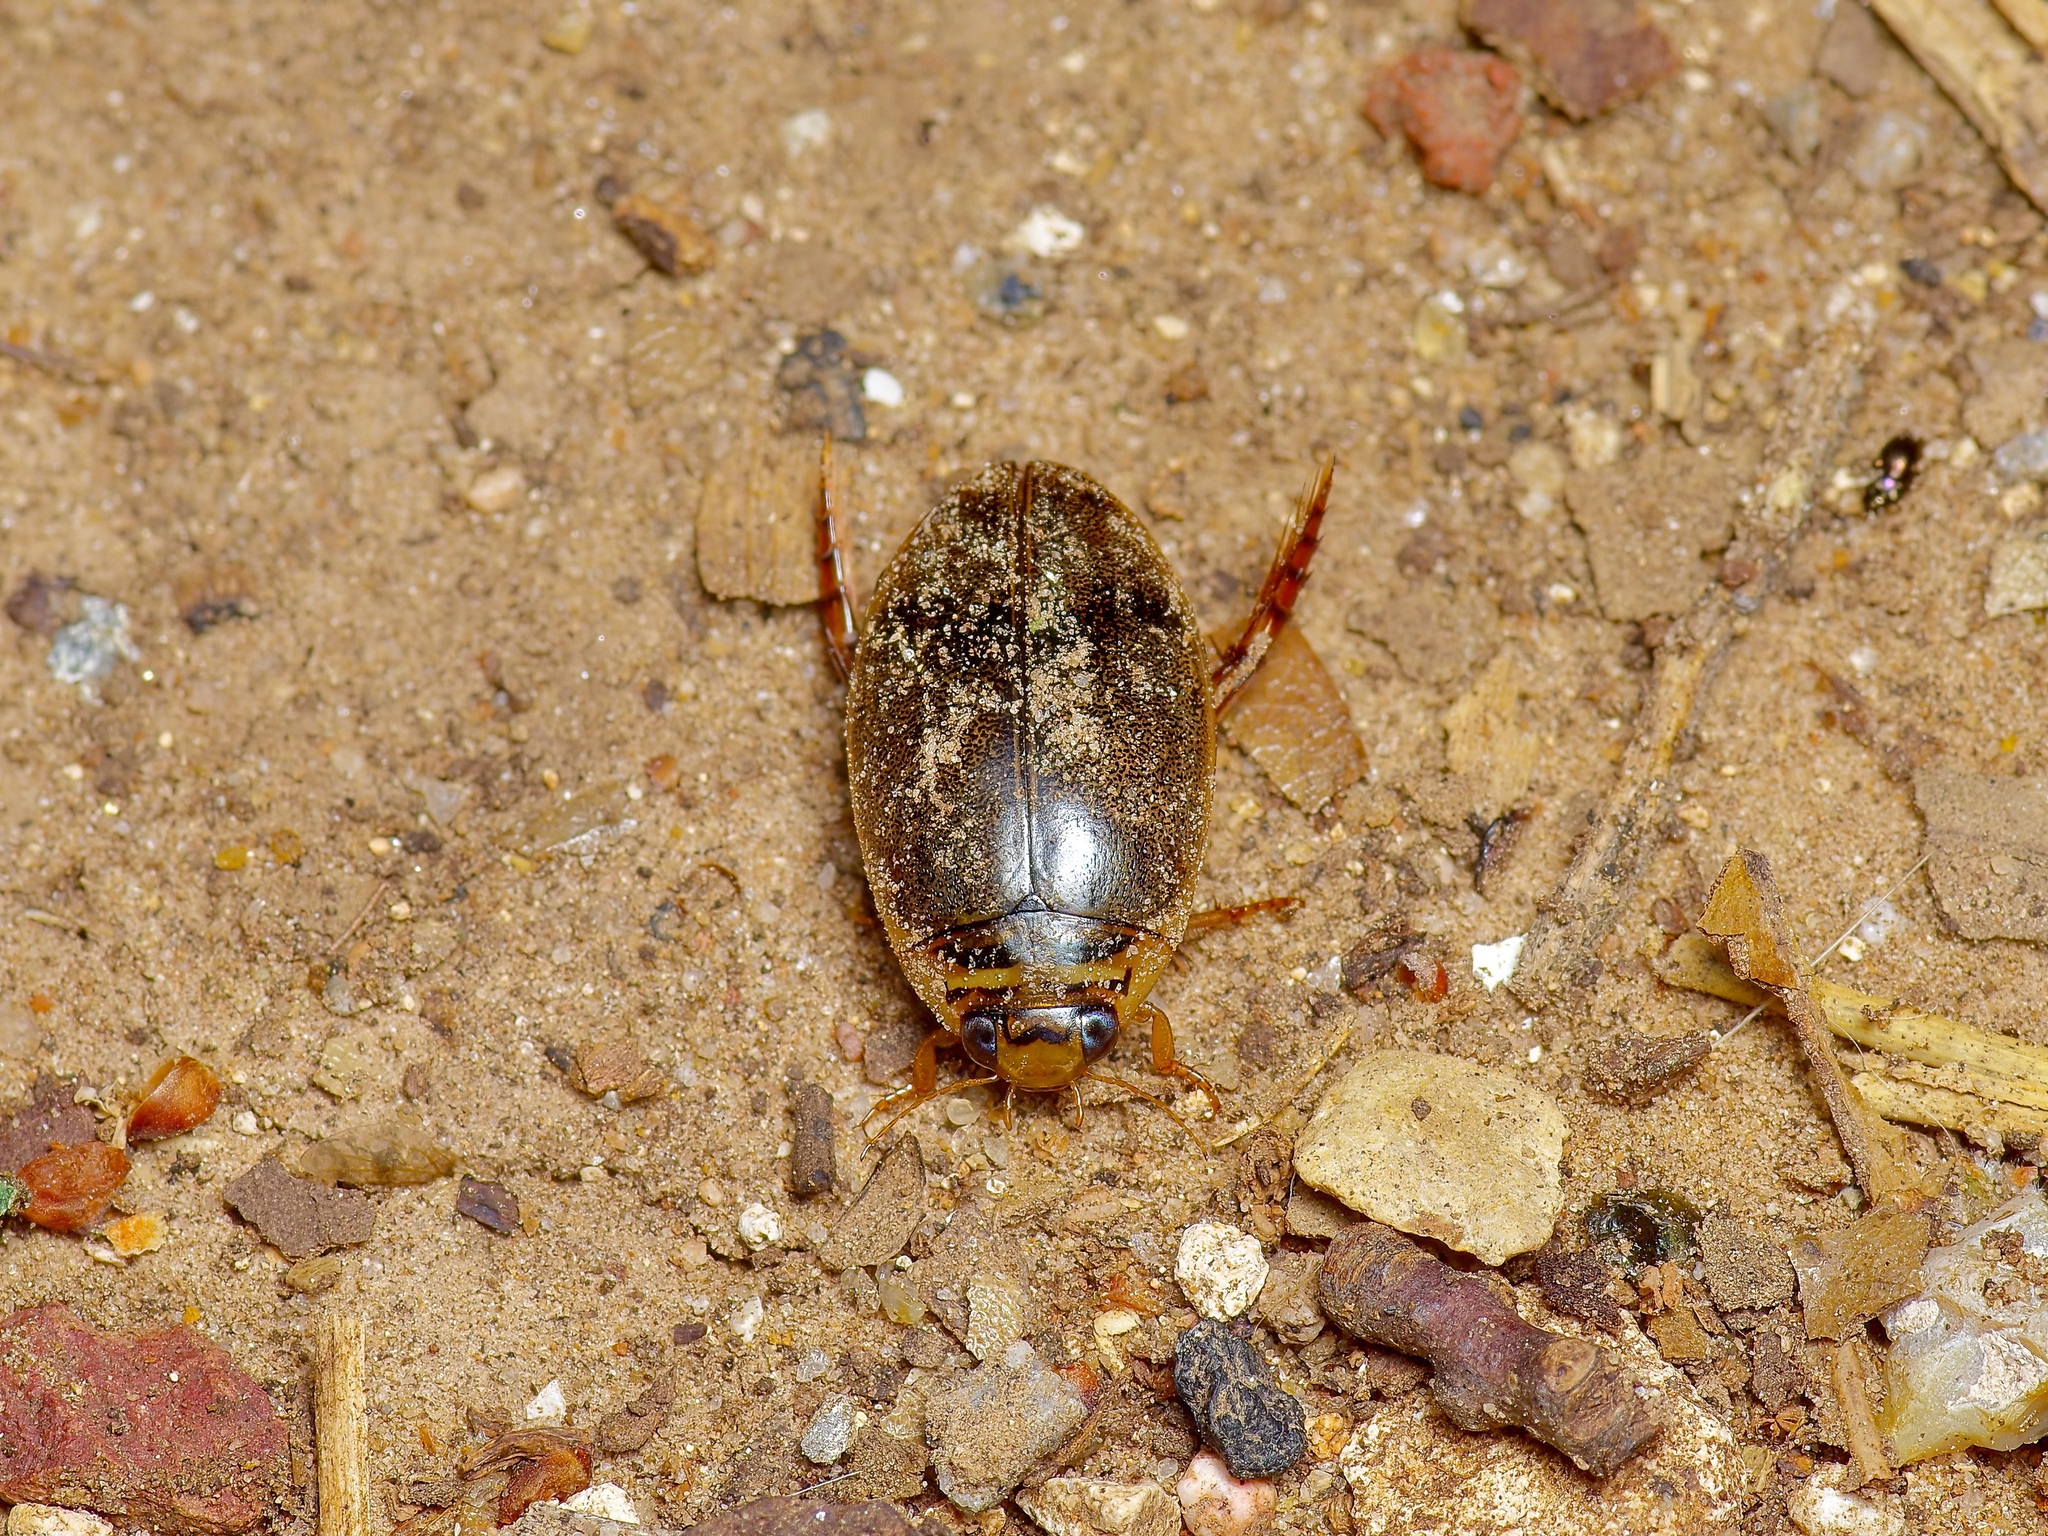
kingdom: Animalia
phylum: Arthropoda
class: Insecta
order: Coleoptera
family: Dytiscidae
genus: Thermonectus
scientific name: Thermonectus nigrofasciatus
